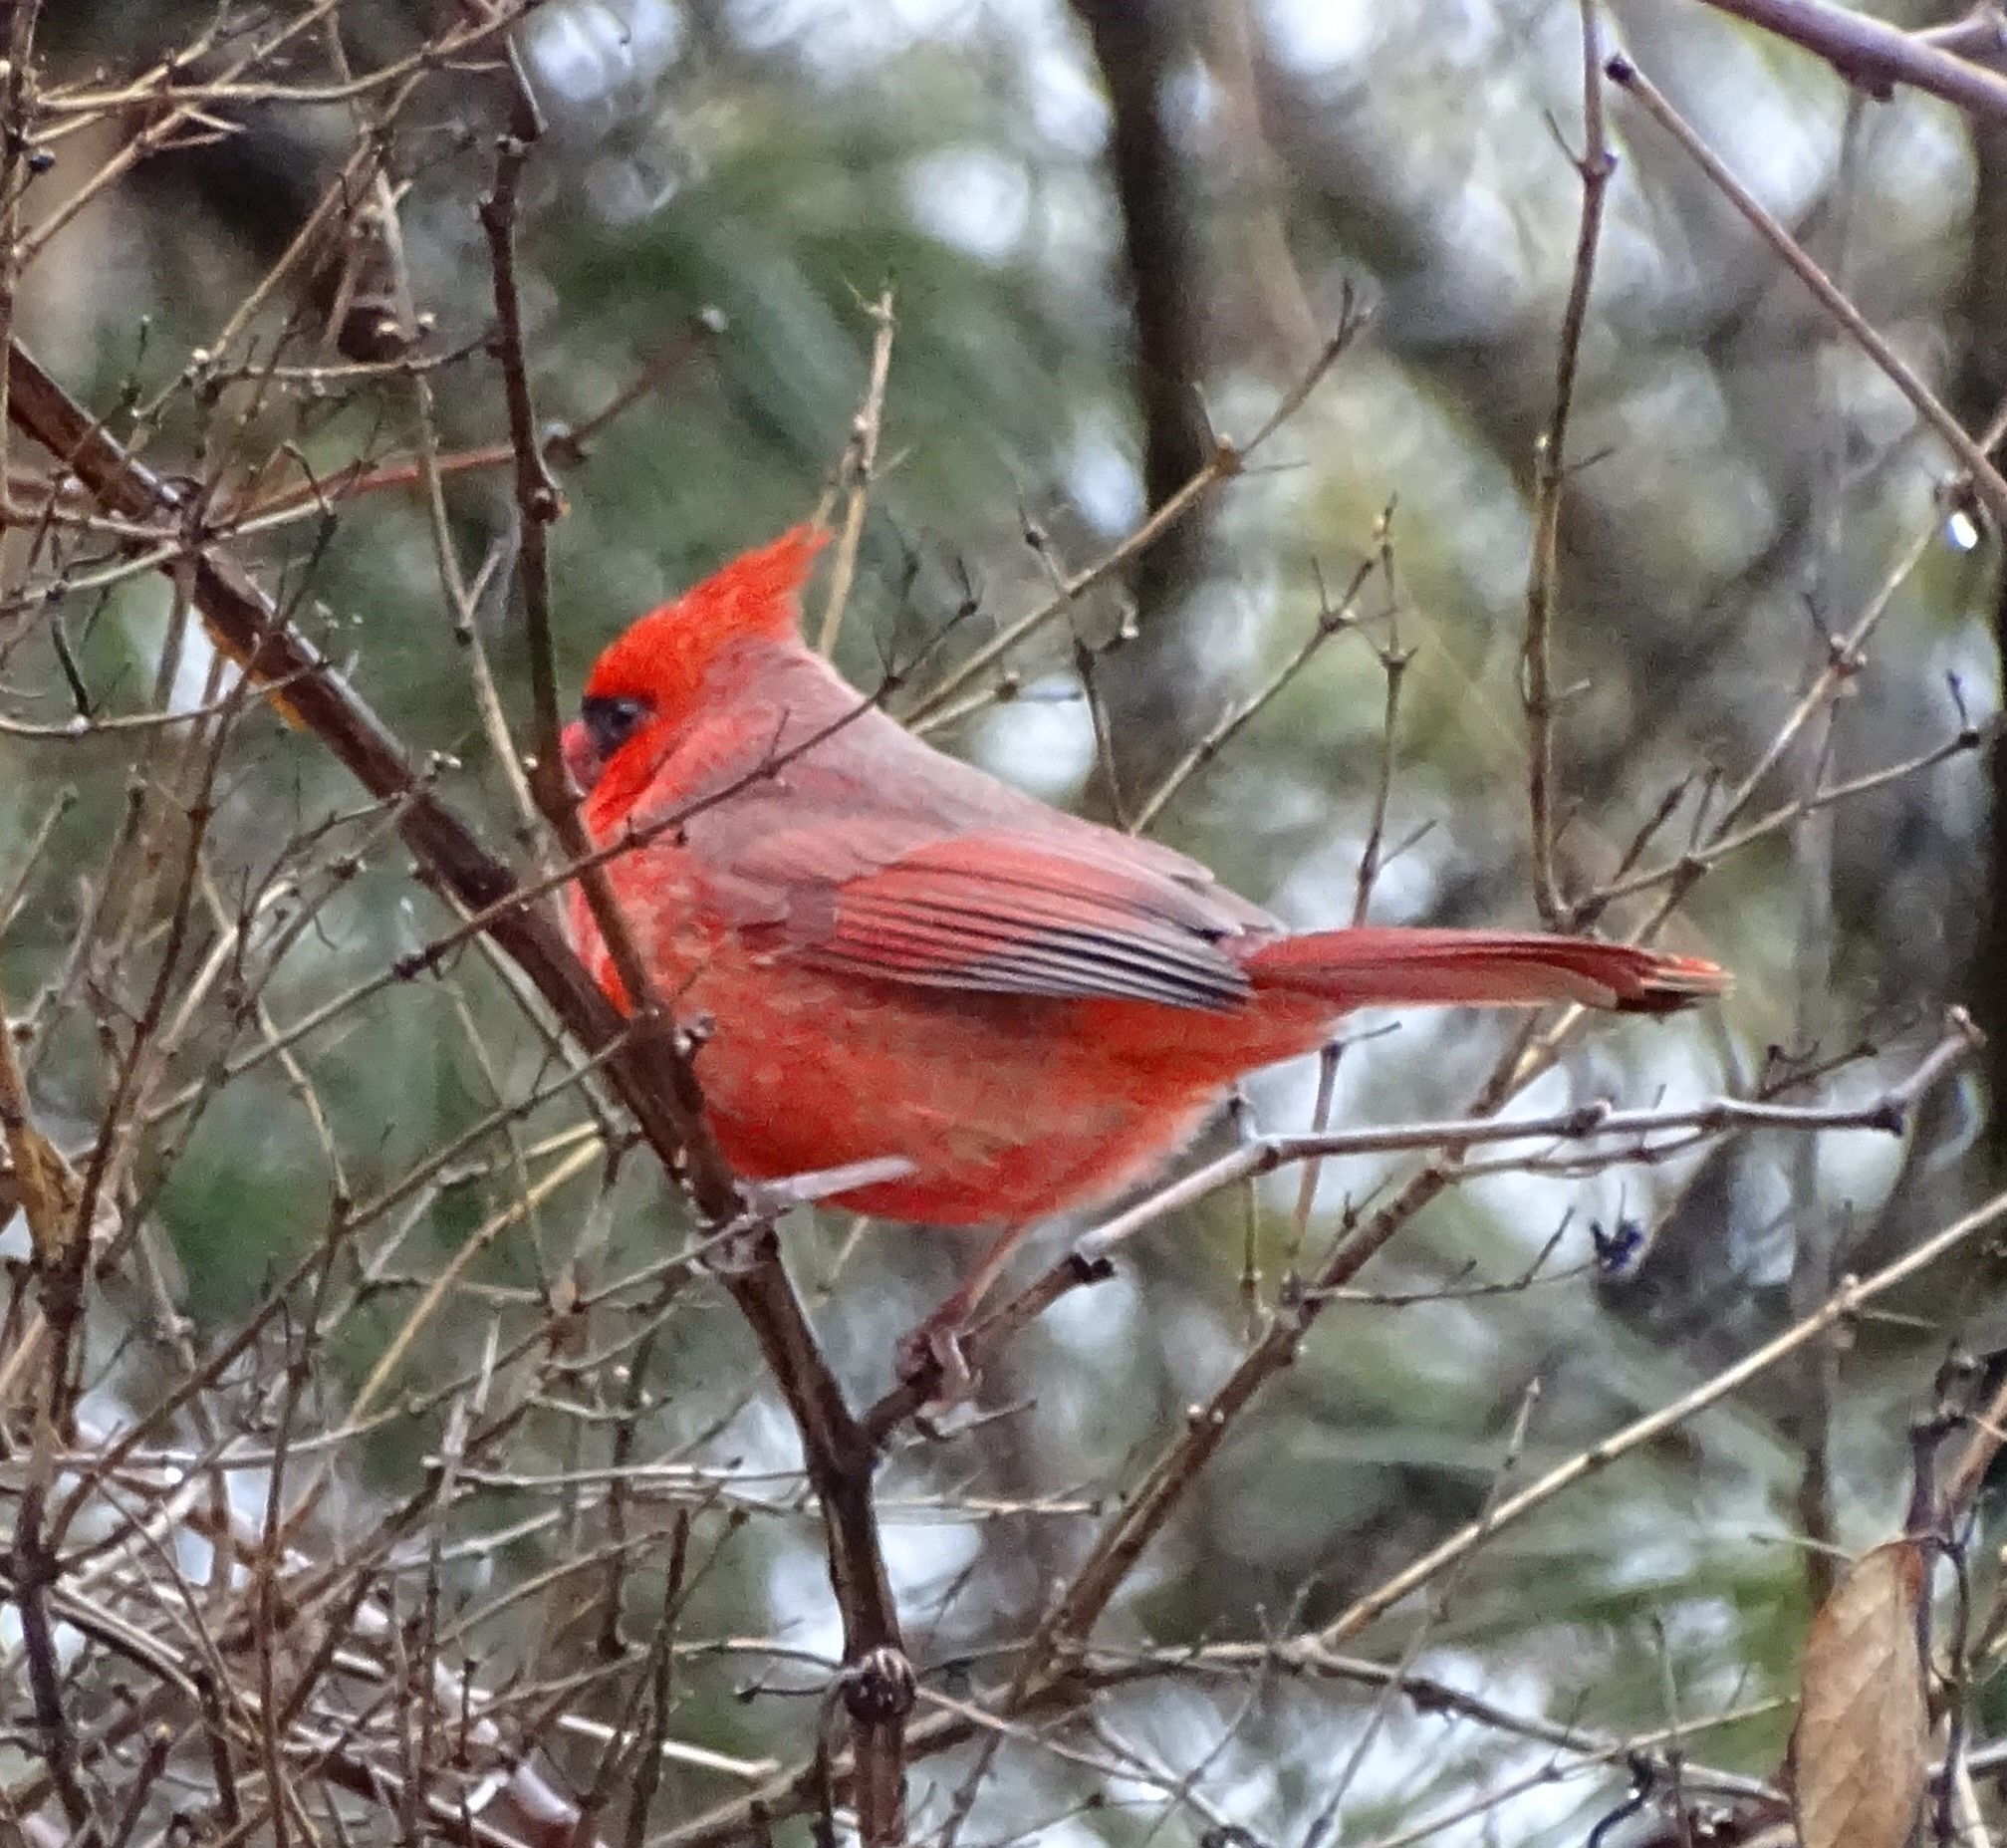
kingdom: Animalia
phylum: Chordata
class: Aves
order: Passeriformes
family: Cardinalidae
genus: Cardinalis
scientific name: Cardinalis cardinalis
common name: Northern cardinal
